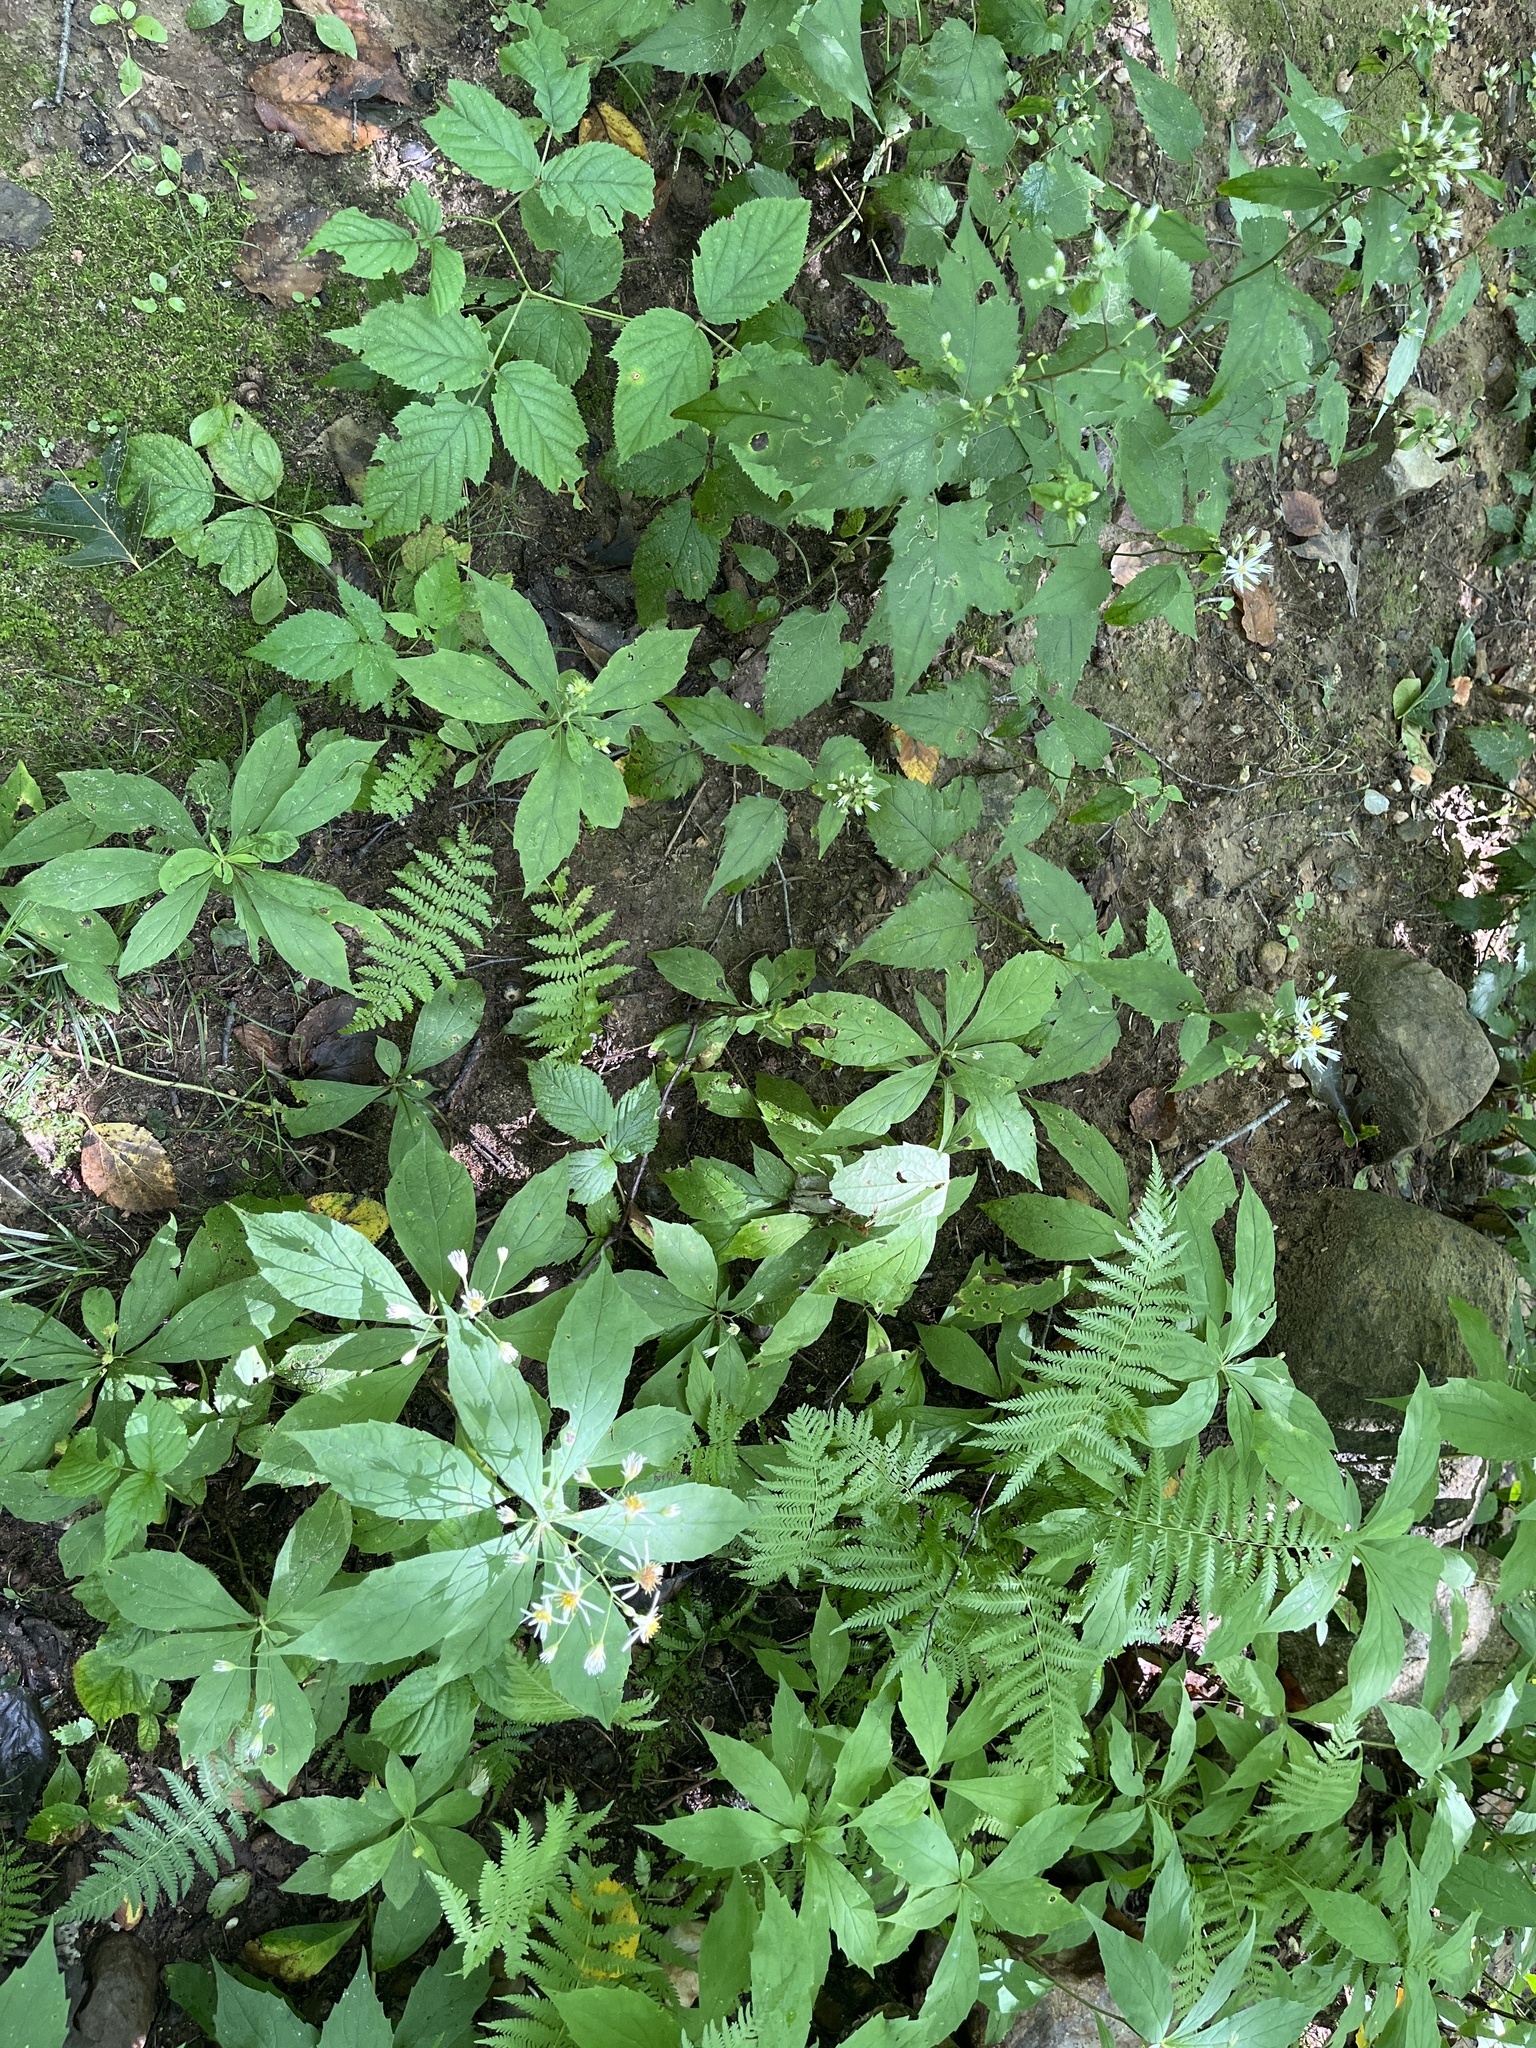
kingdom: Plantae
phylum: Tracheophyta
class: Magnoliopsida
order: Asterales
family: Asteraceae
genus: Oclemena
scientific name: Oclemena acuminata
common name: Mountain aster
